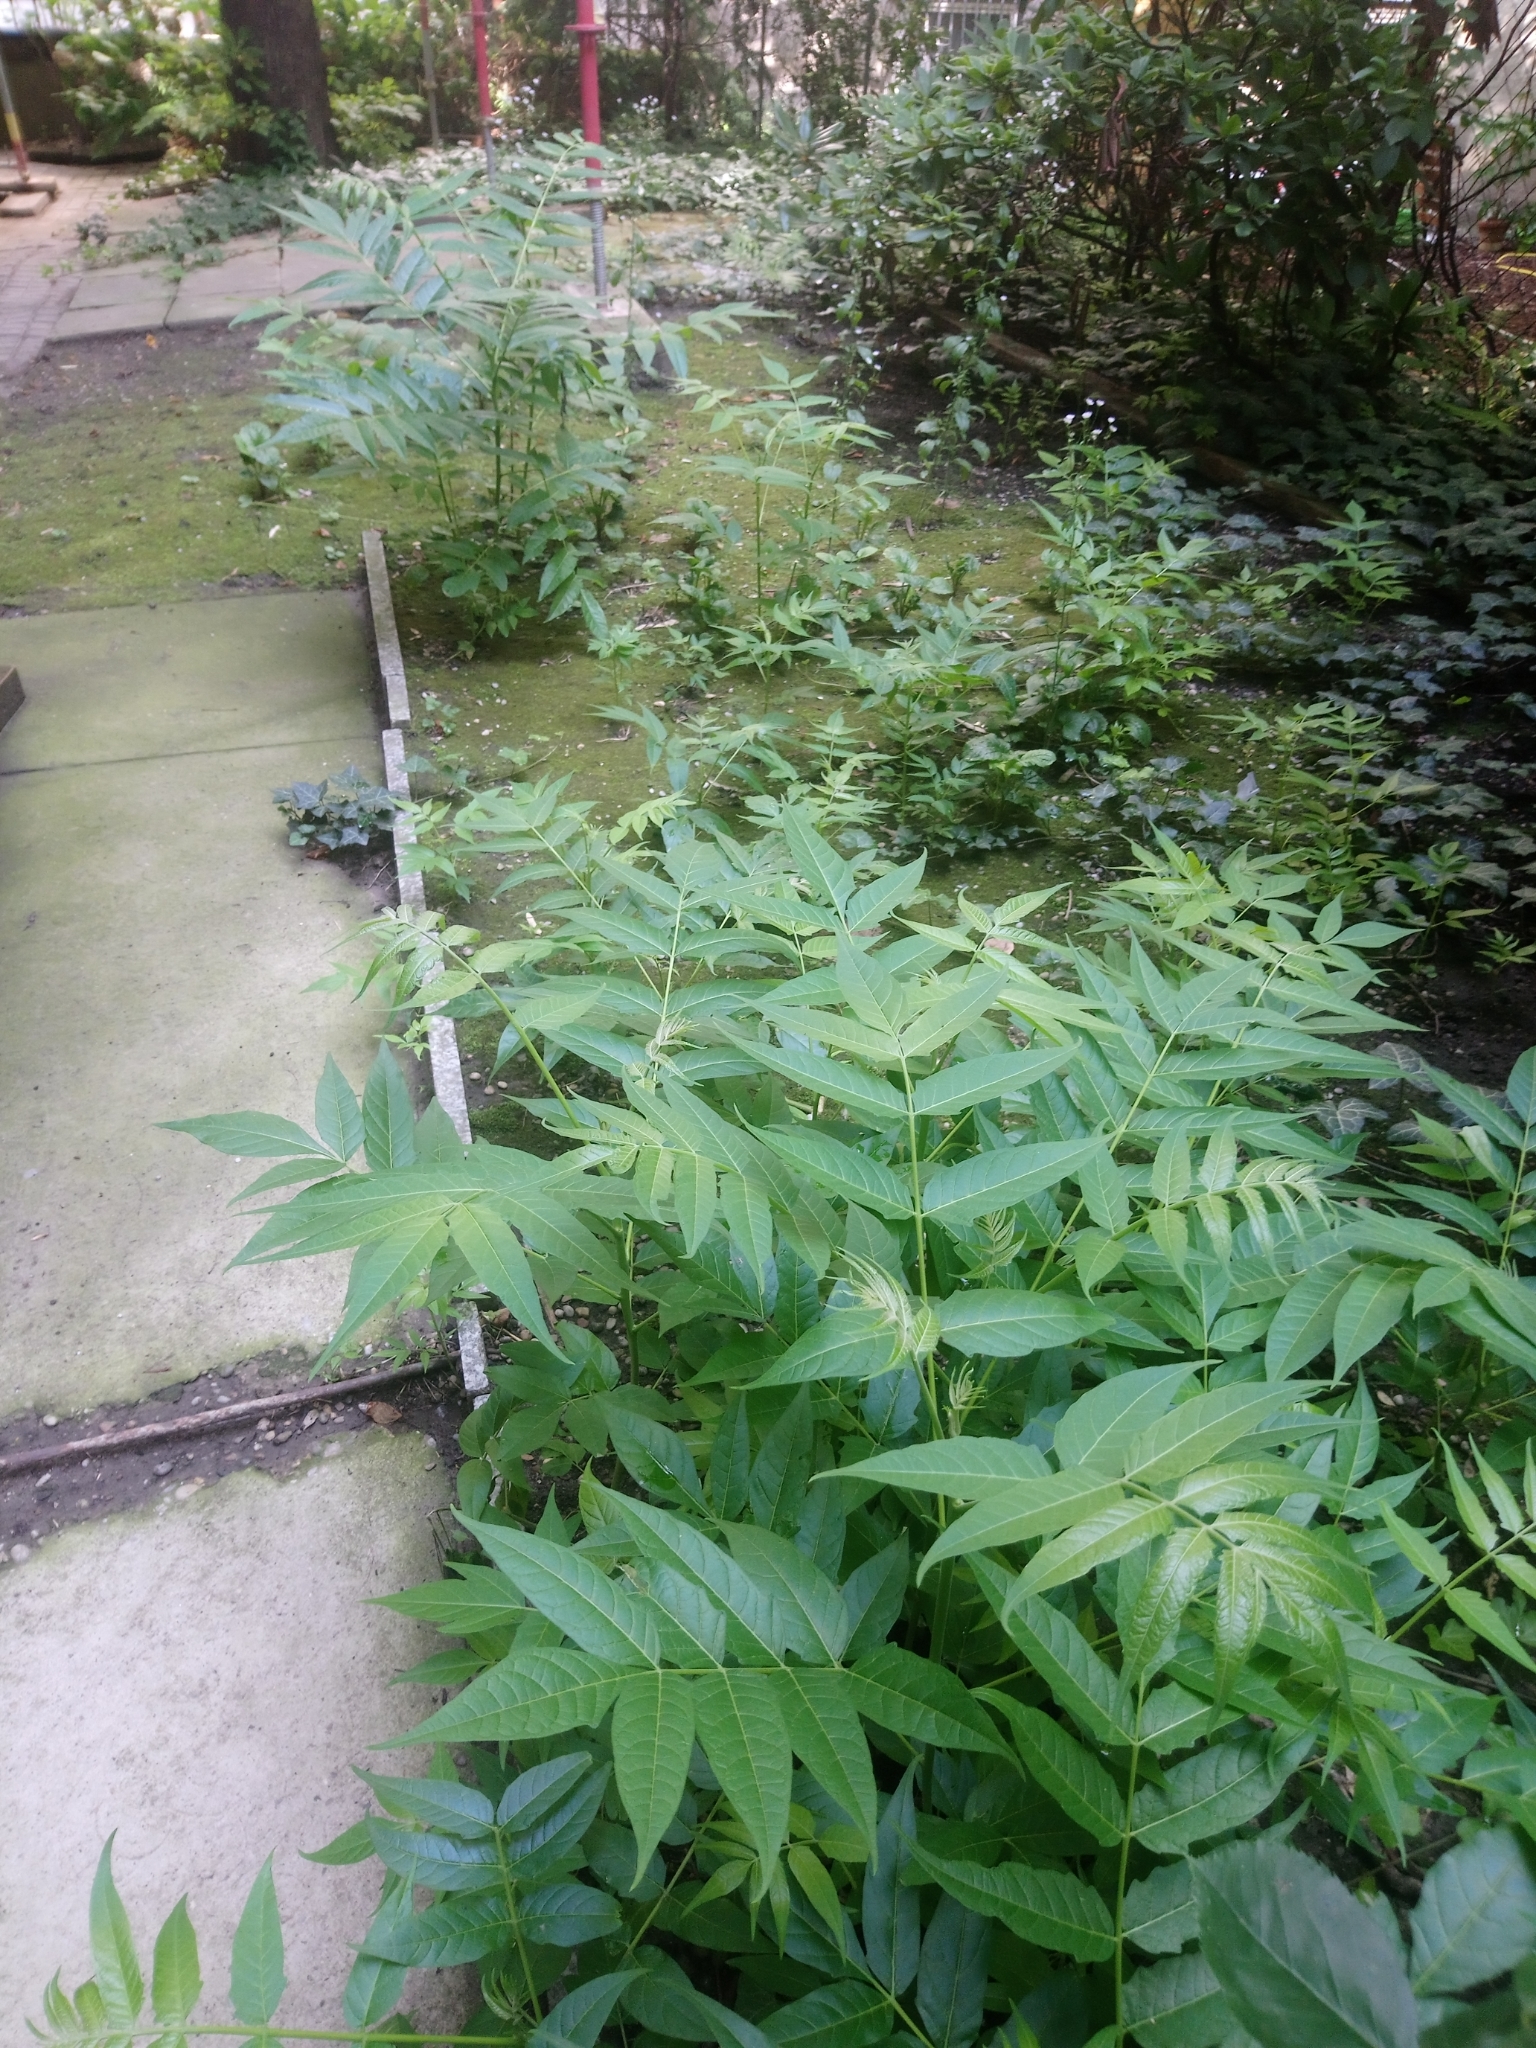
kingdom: Plantae
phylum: Tracheophyta
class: Magnoliopsida
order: Sapindales
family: Simaroubaceae
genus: Ailanthus
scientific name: Ailanthus altissima
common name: Tree-of-heaven
